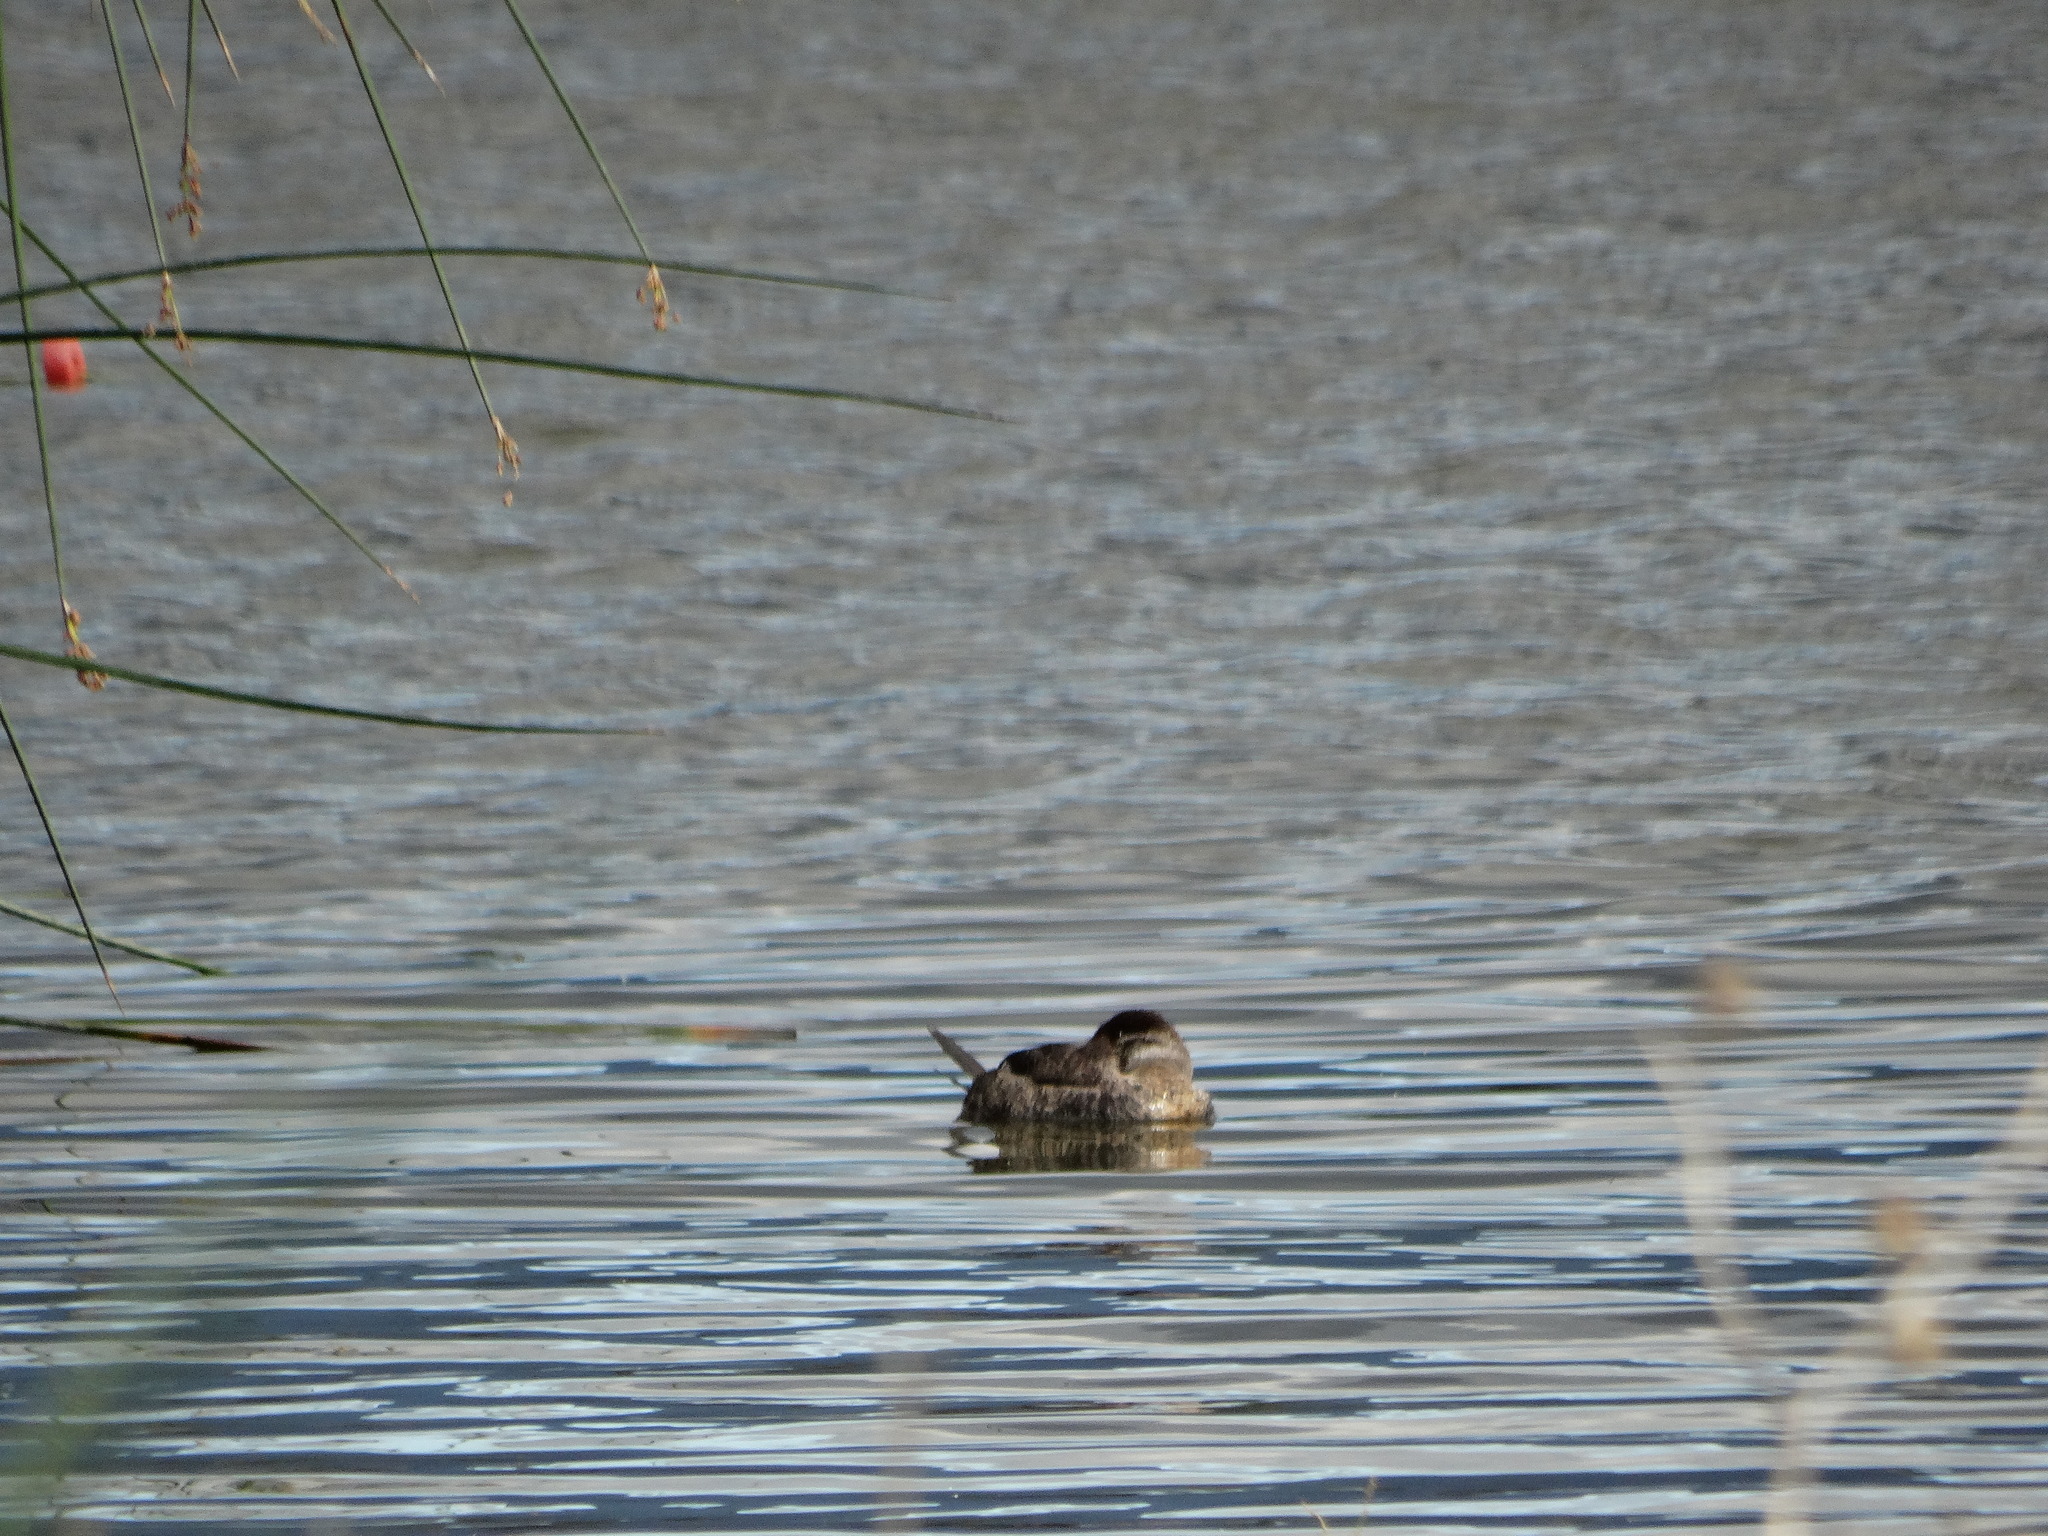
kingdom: Animalia
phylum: Chordata
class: Aves
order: Anseriformes
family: Anatidae
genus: Oxyura
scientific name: Oxyura jamaicensis
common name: Ruddy duck
